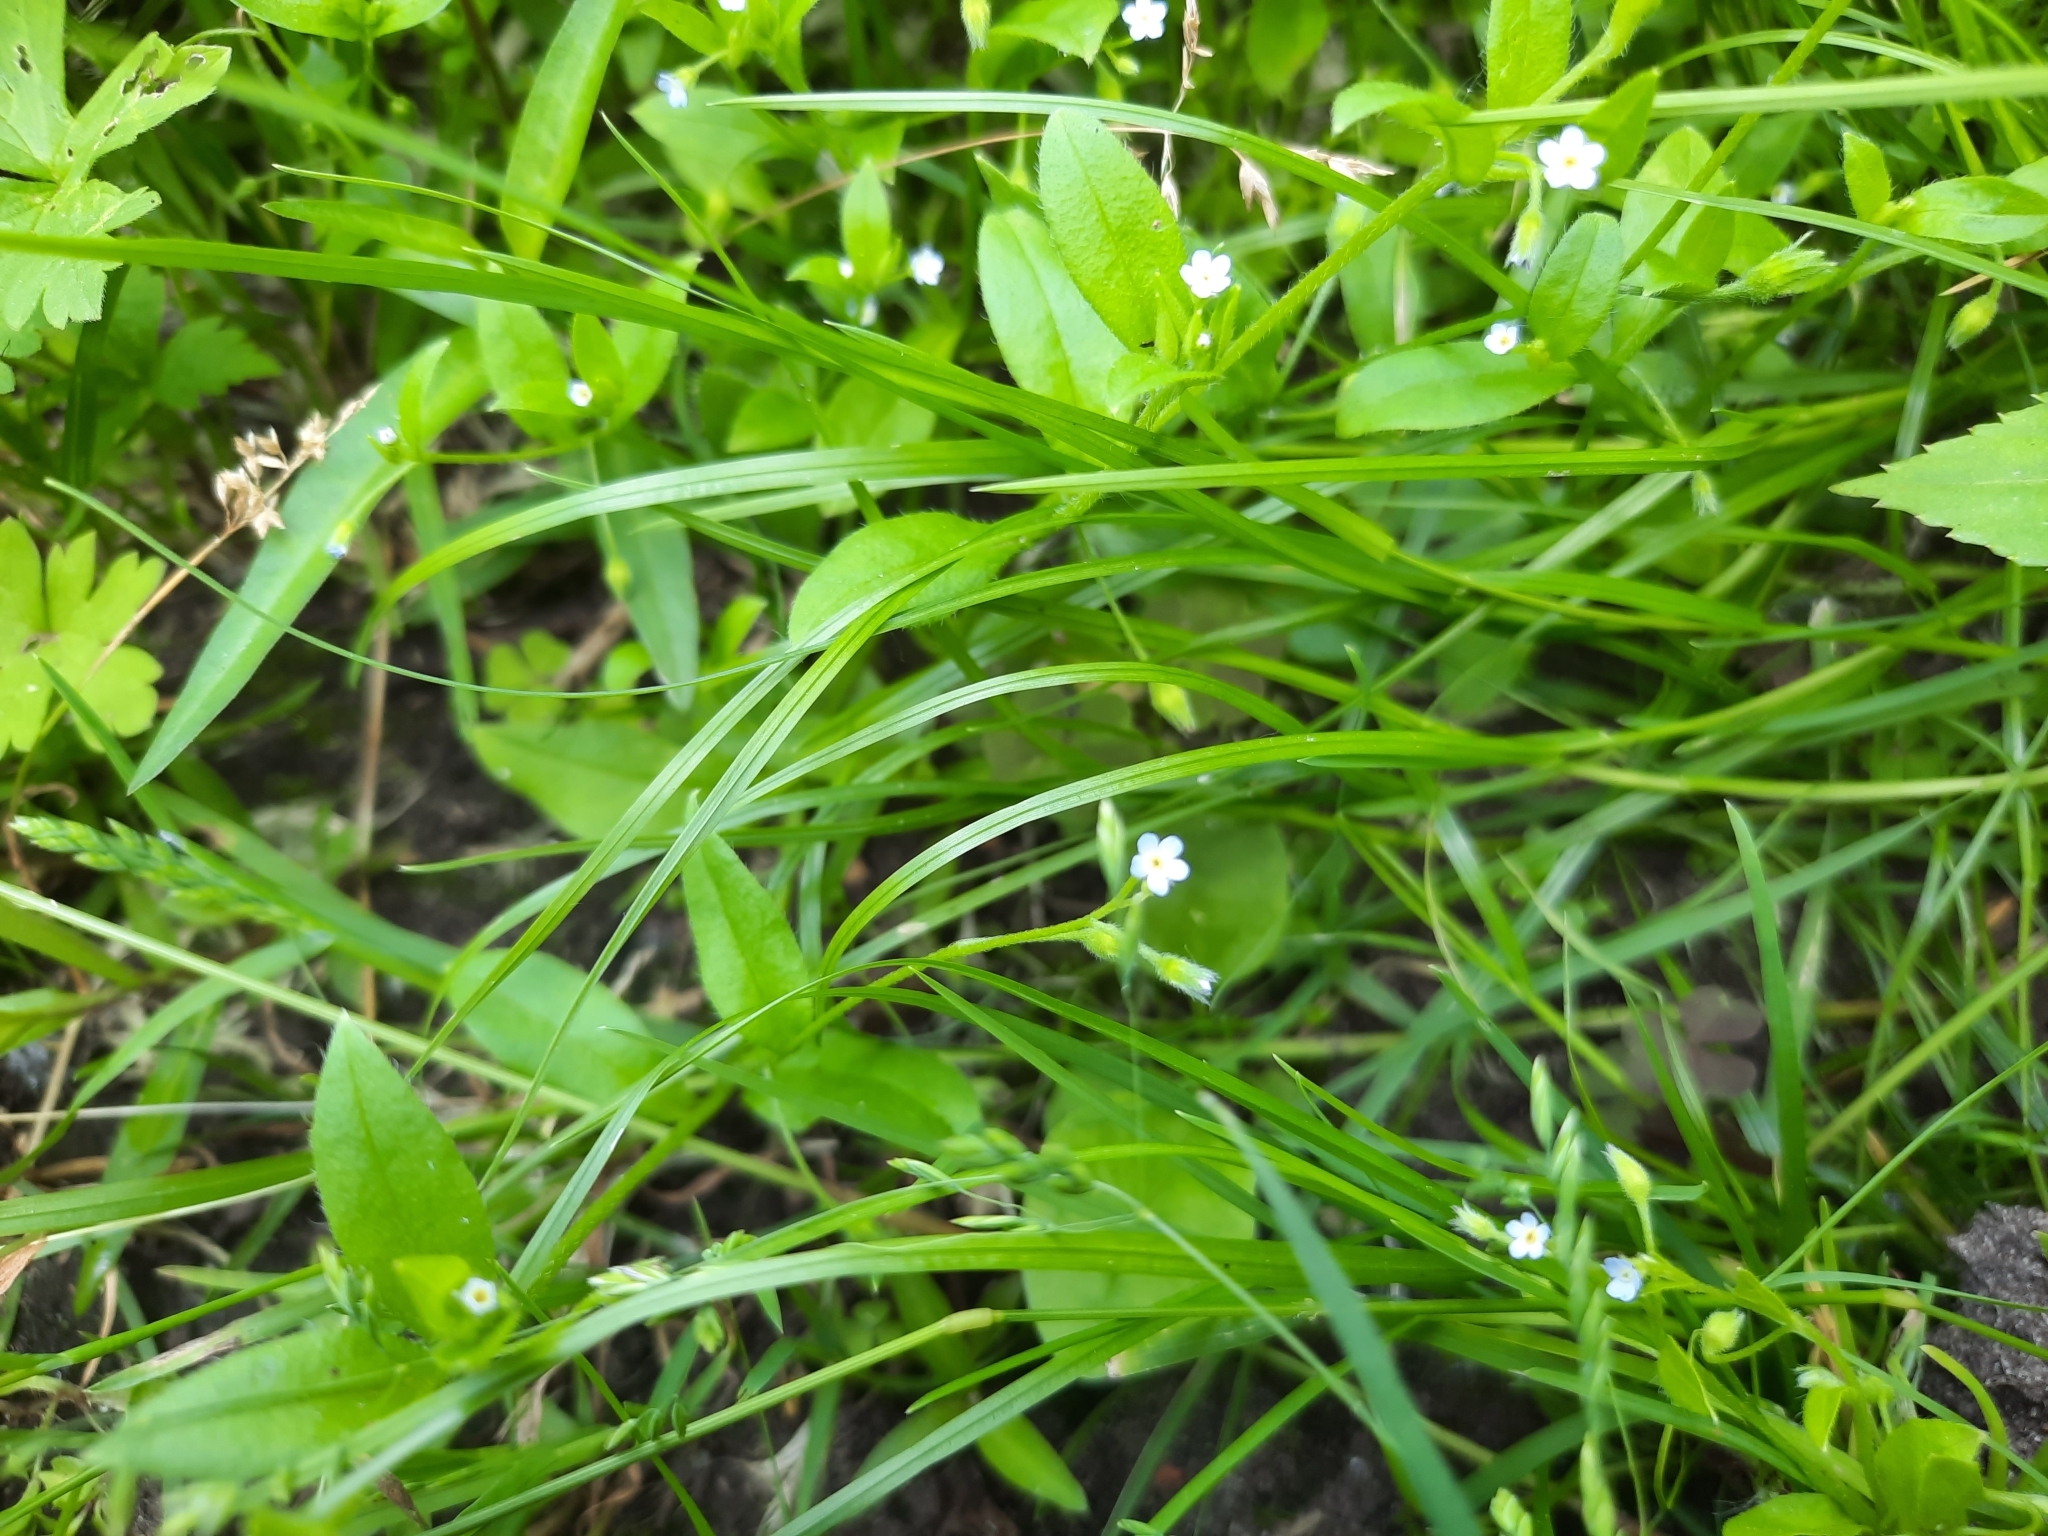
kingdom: Plantae
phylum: Tracheophyta
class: Magnoliopsida
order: Boraginales
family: Boraginaceae
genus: Myosotis
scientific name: Myosotis sparsiflora
